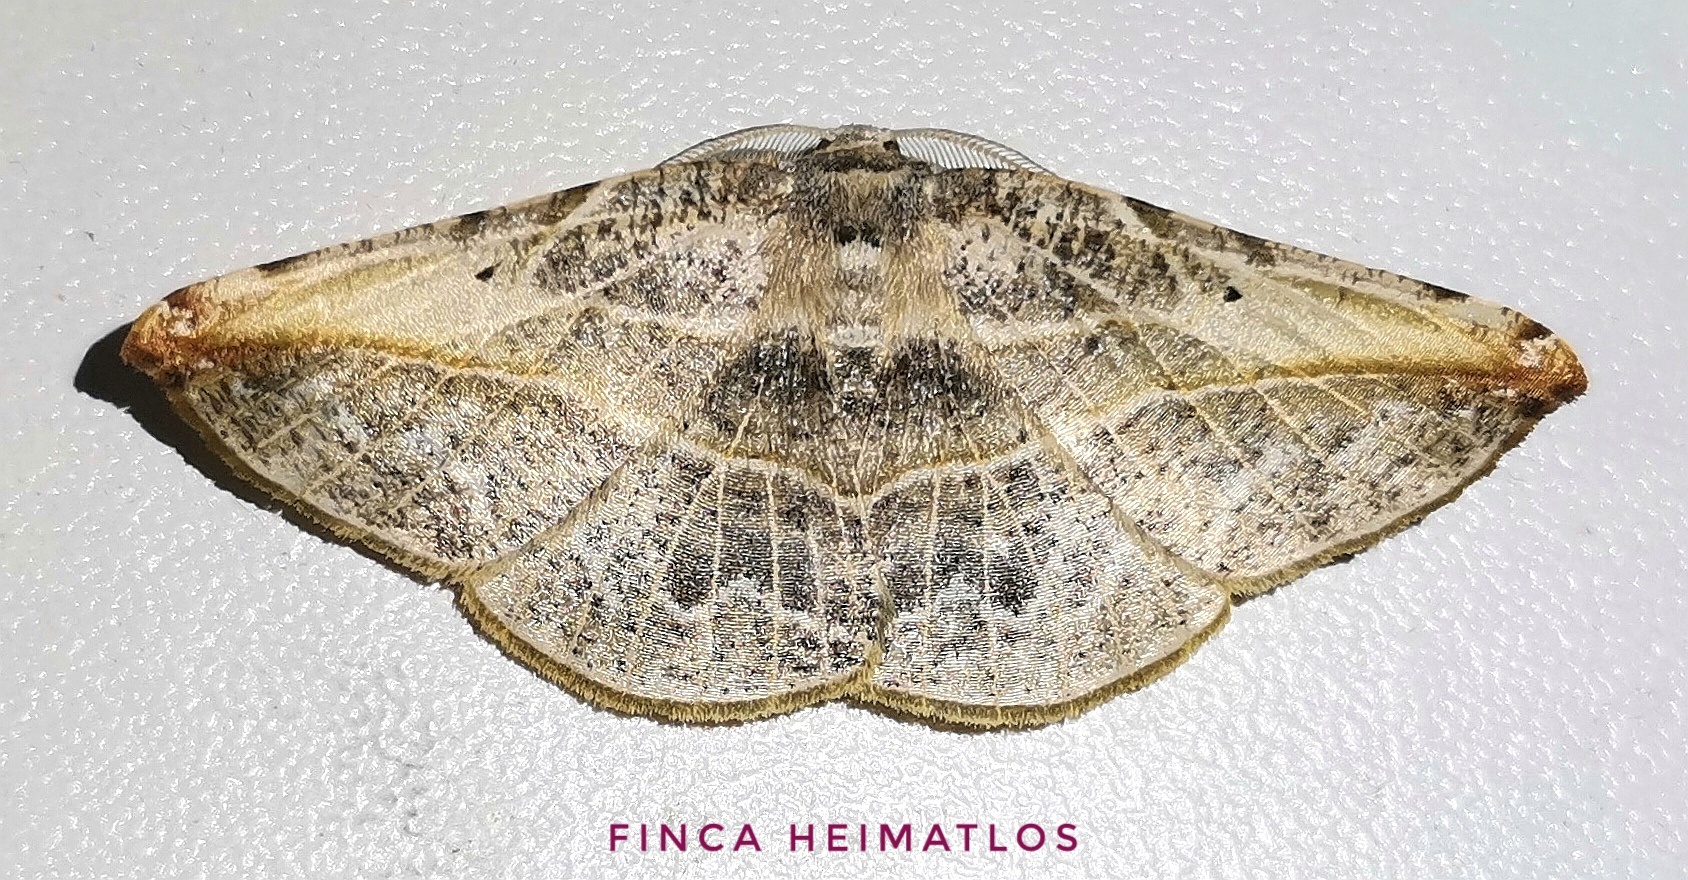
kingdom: Animalia
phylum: Arthropoda
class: Insecta
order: Lepidoptera
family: Geometridae
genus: Eusarca
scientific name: Eusarca minucia
